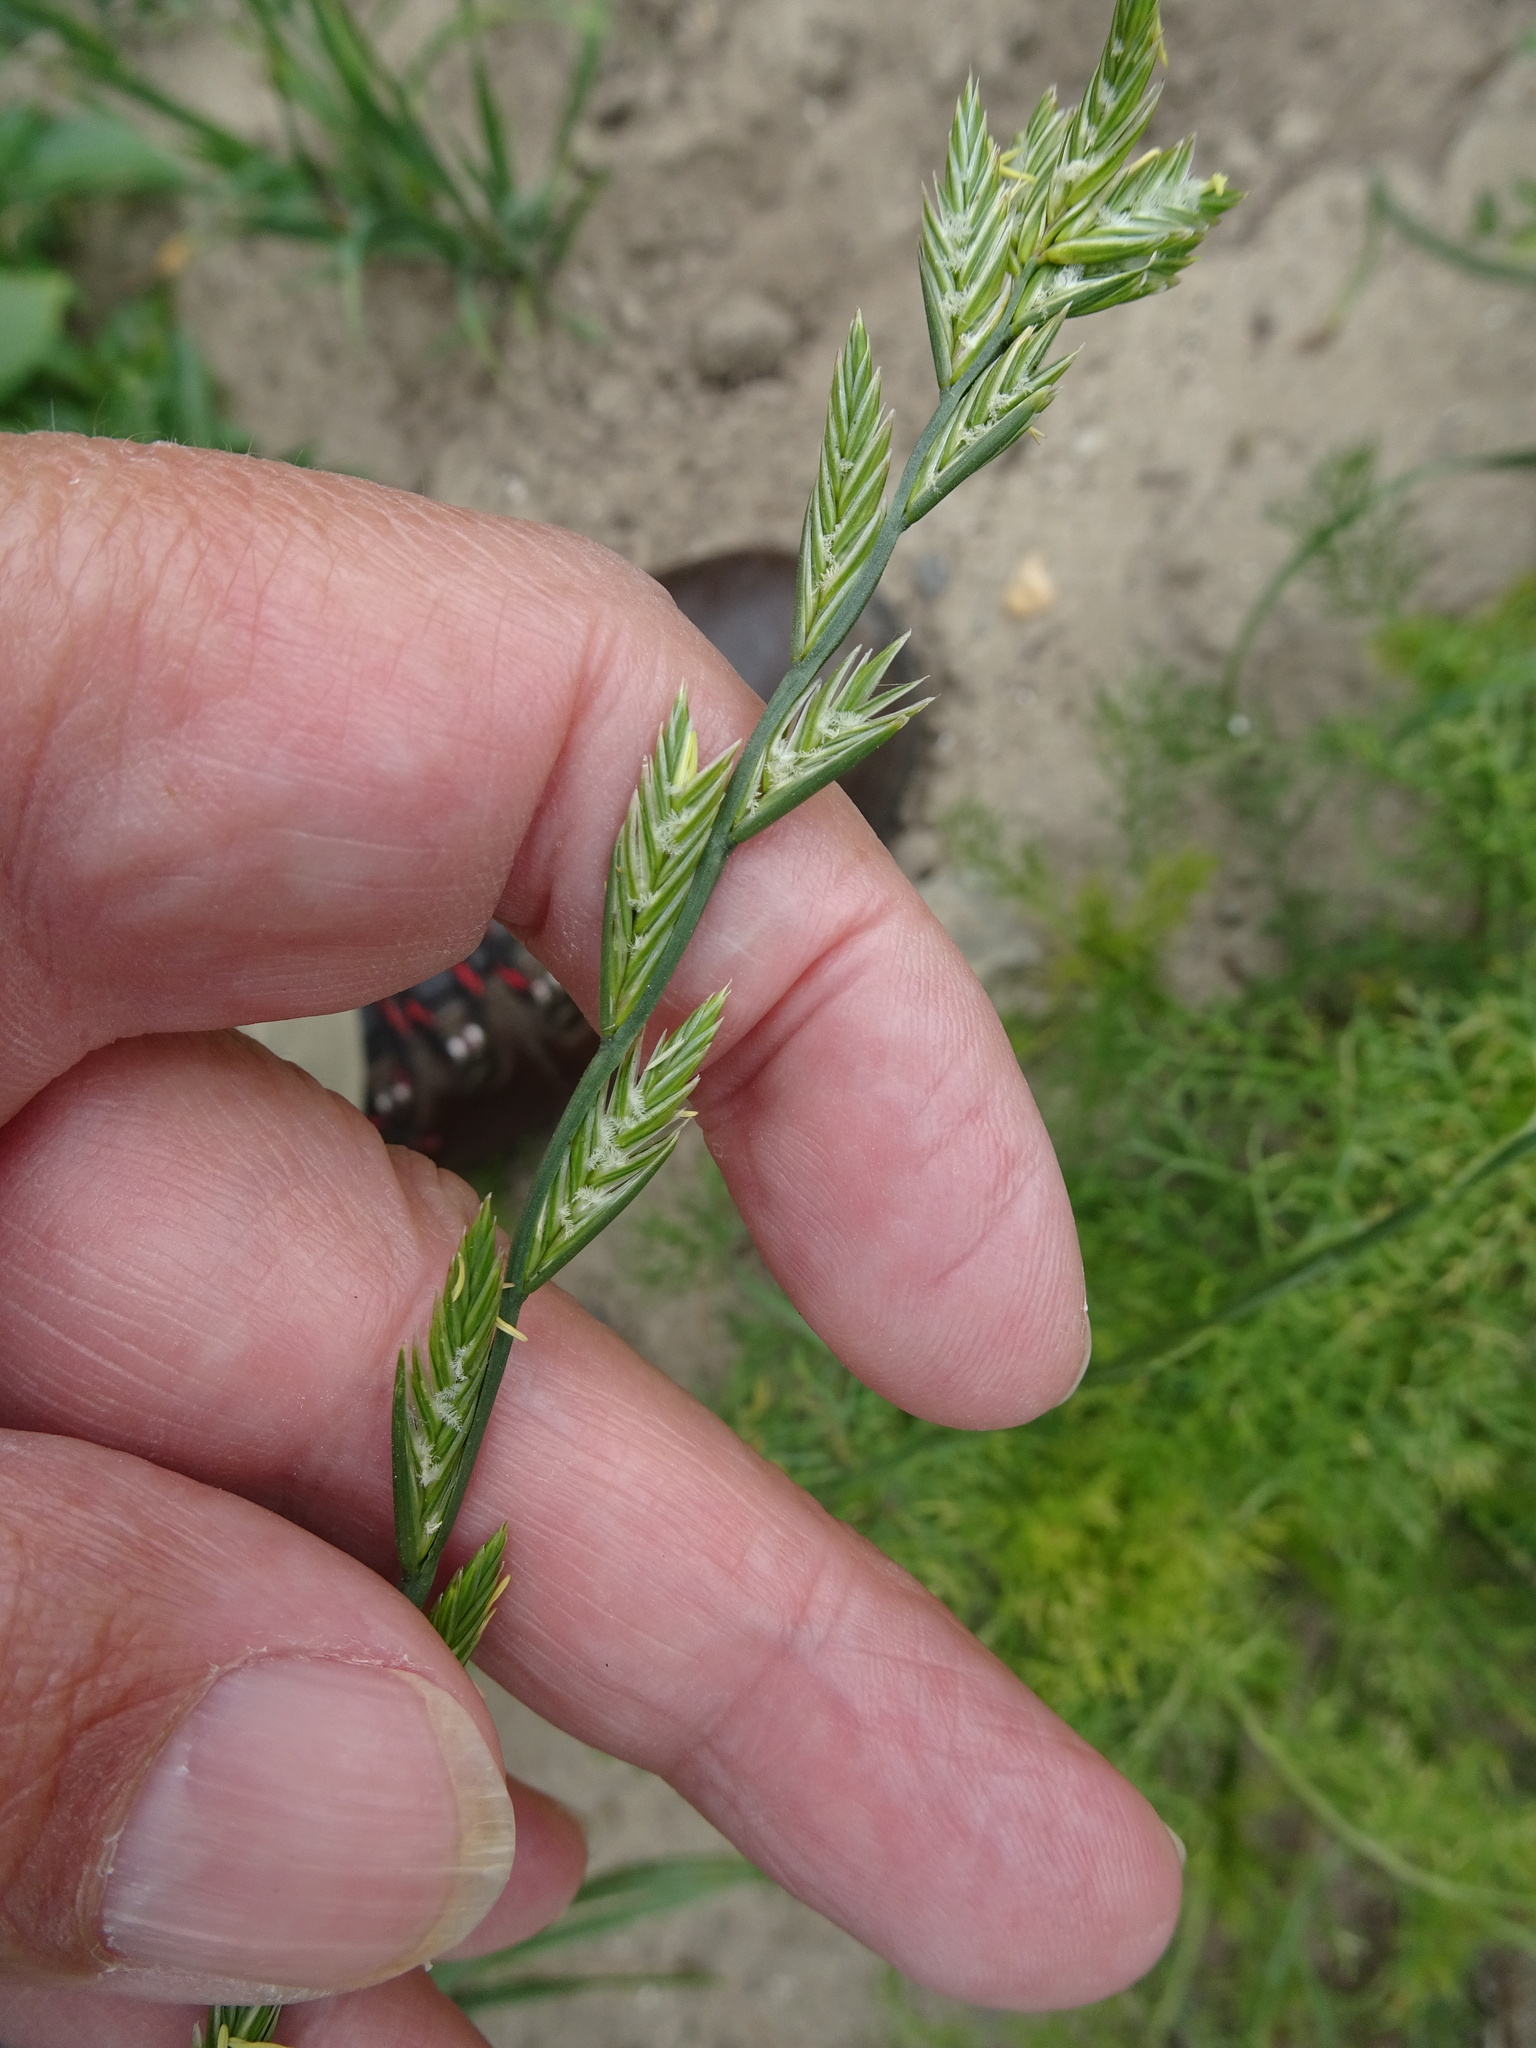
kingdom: Plantae
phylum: Tracheophyta
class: Liliopsida
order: Poales
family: Poaceae
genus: Lolium
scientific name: Lolium perenne
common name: Perennial ryegrass
